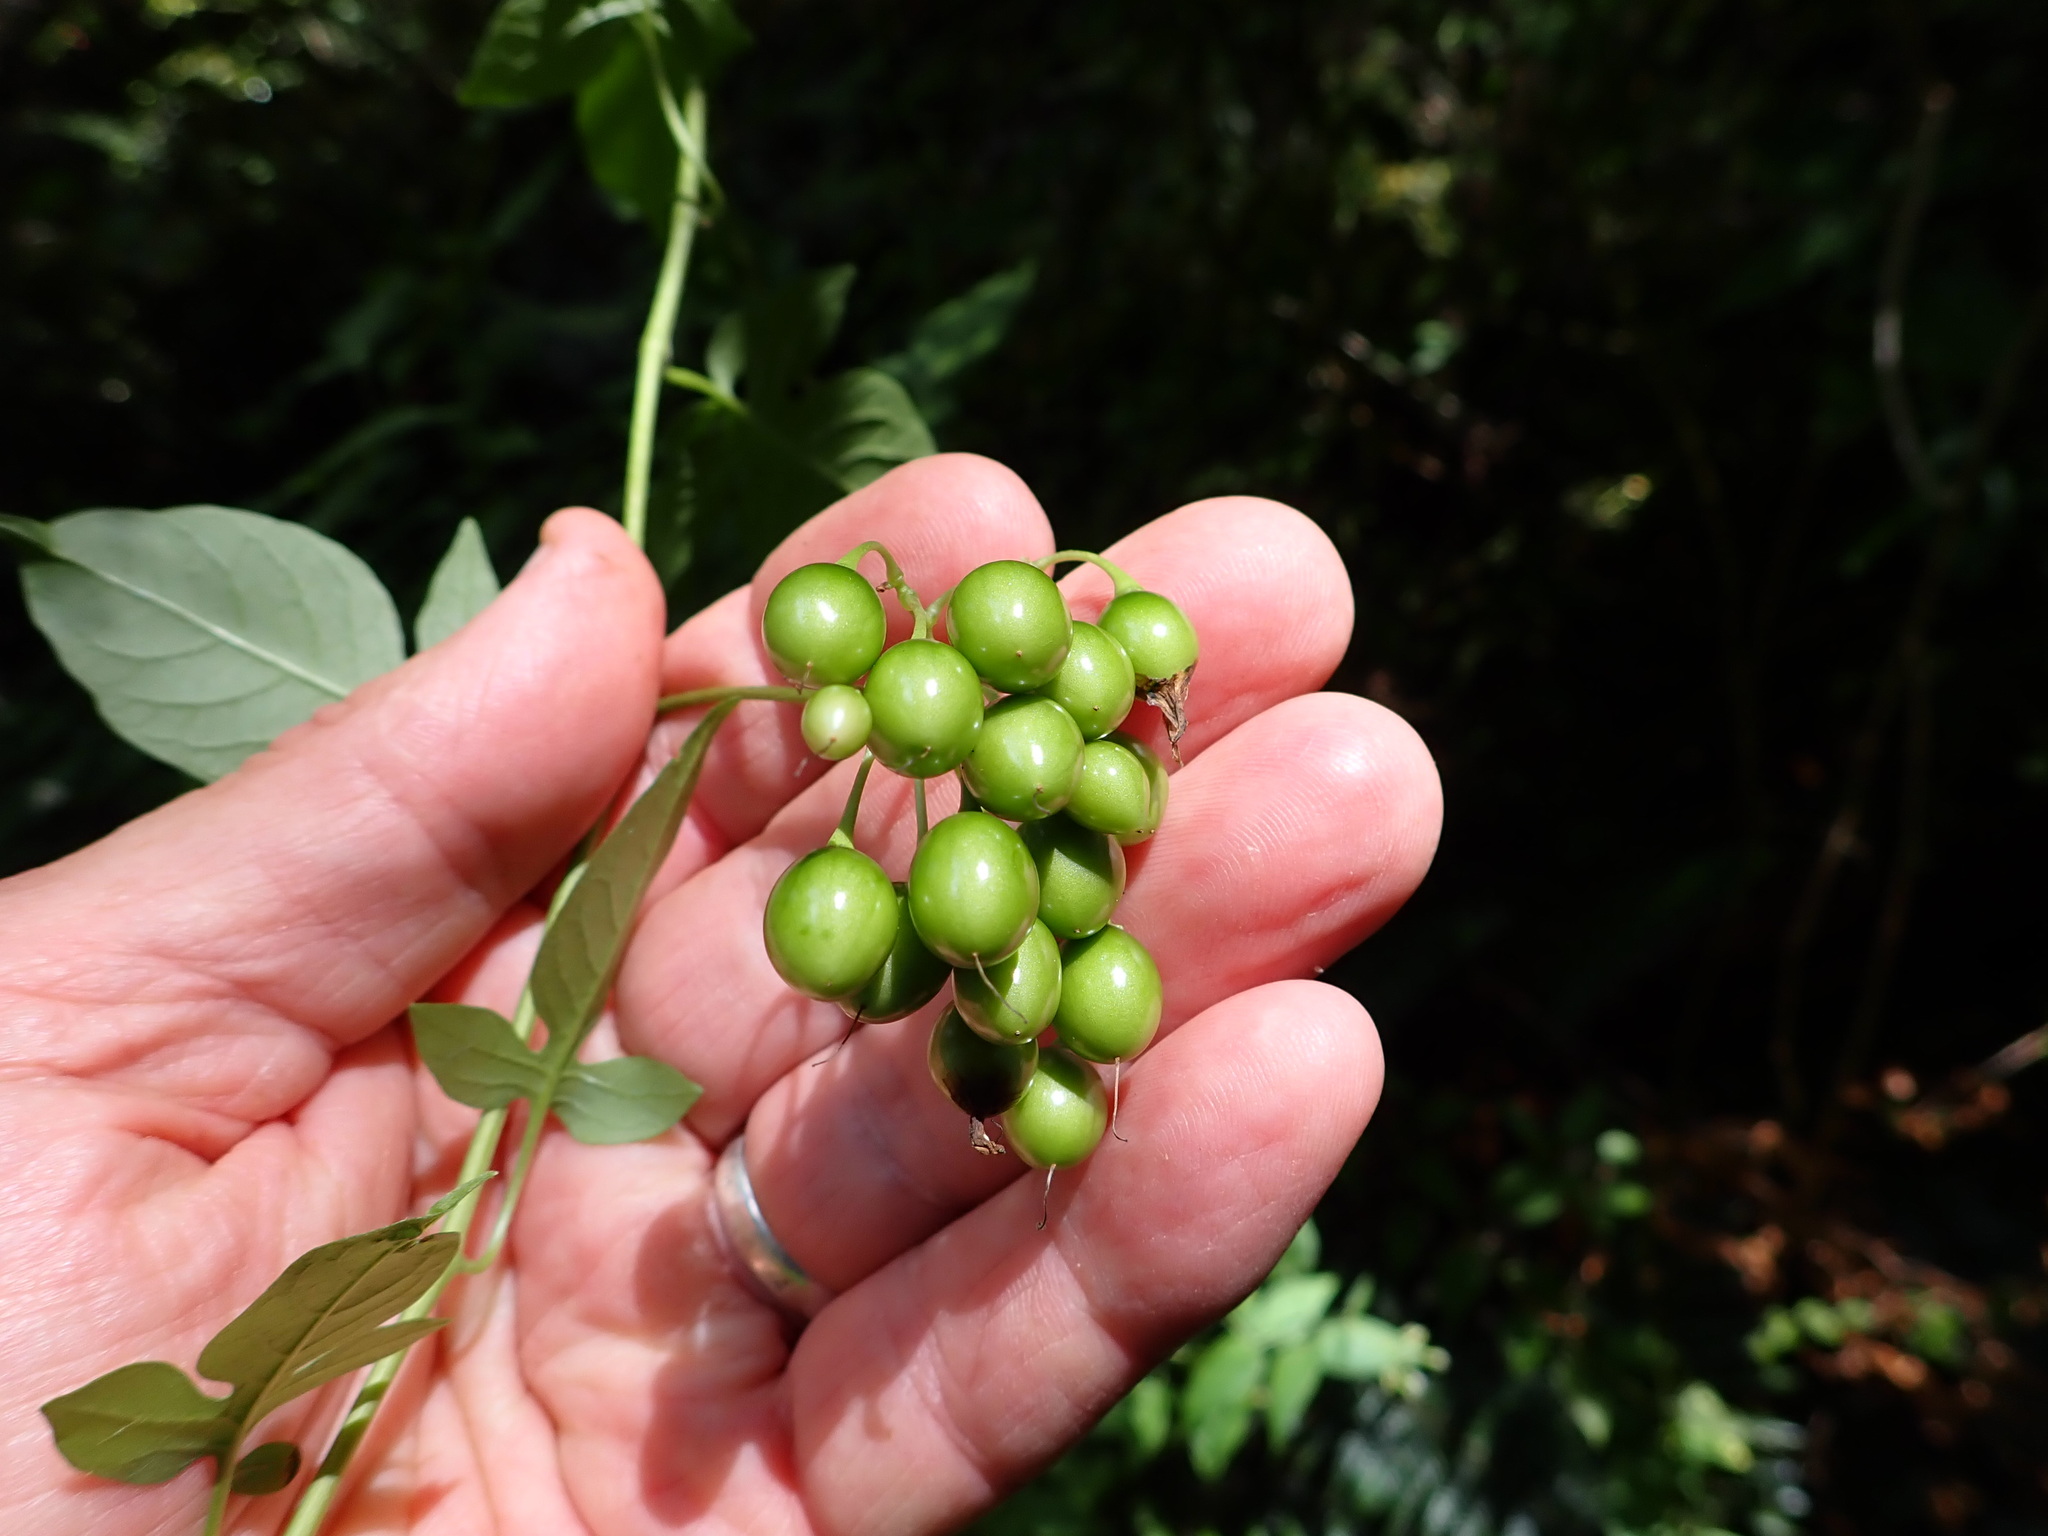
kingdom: Plantae
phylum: Tracheophyta
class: Magnoliopsida
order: Solanales
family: Solanaceae
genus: Solanum
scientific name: Solanum dulcamara
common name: Climbing nightshade
